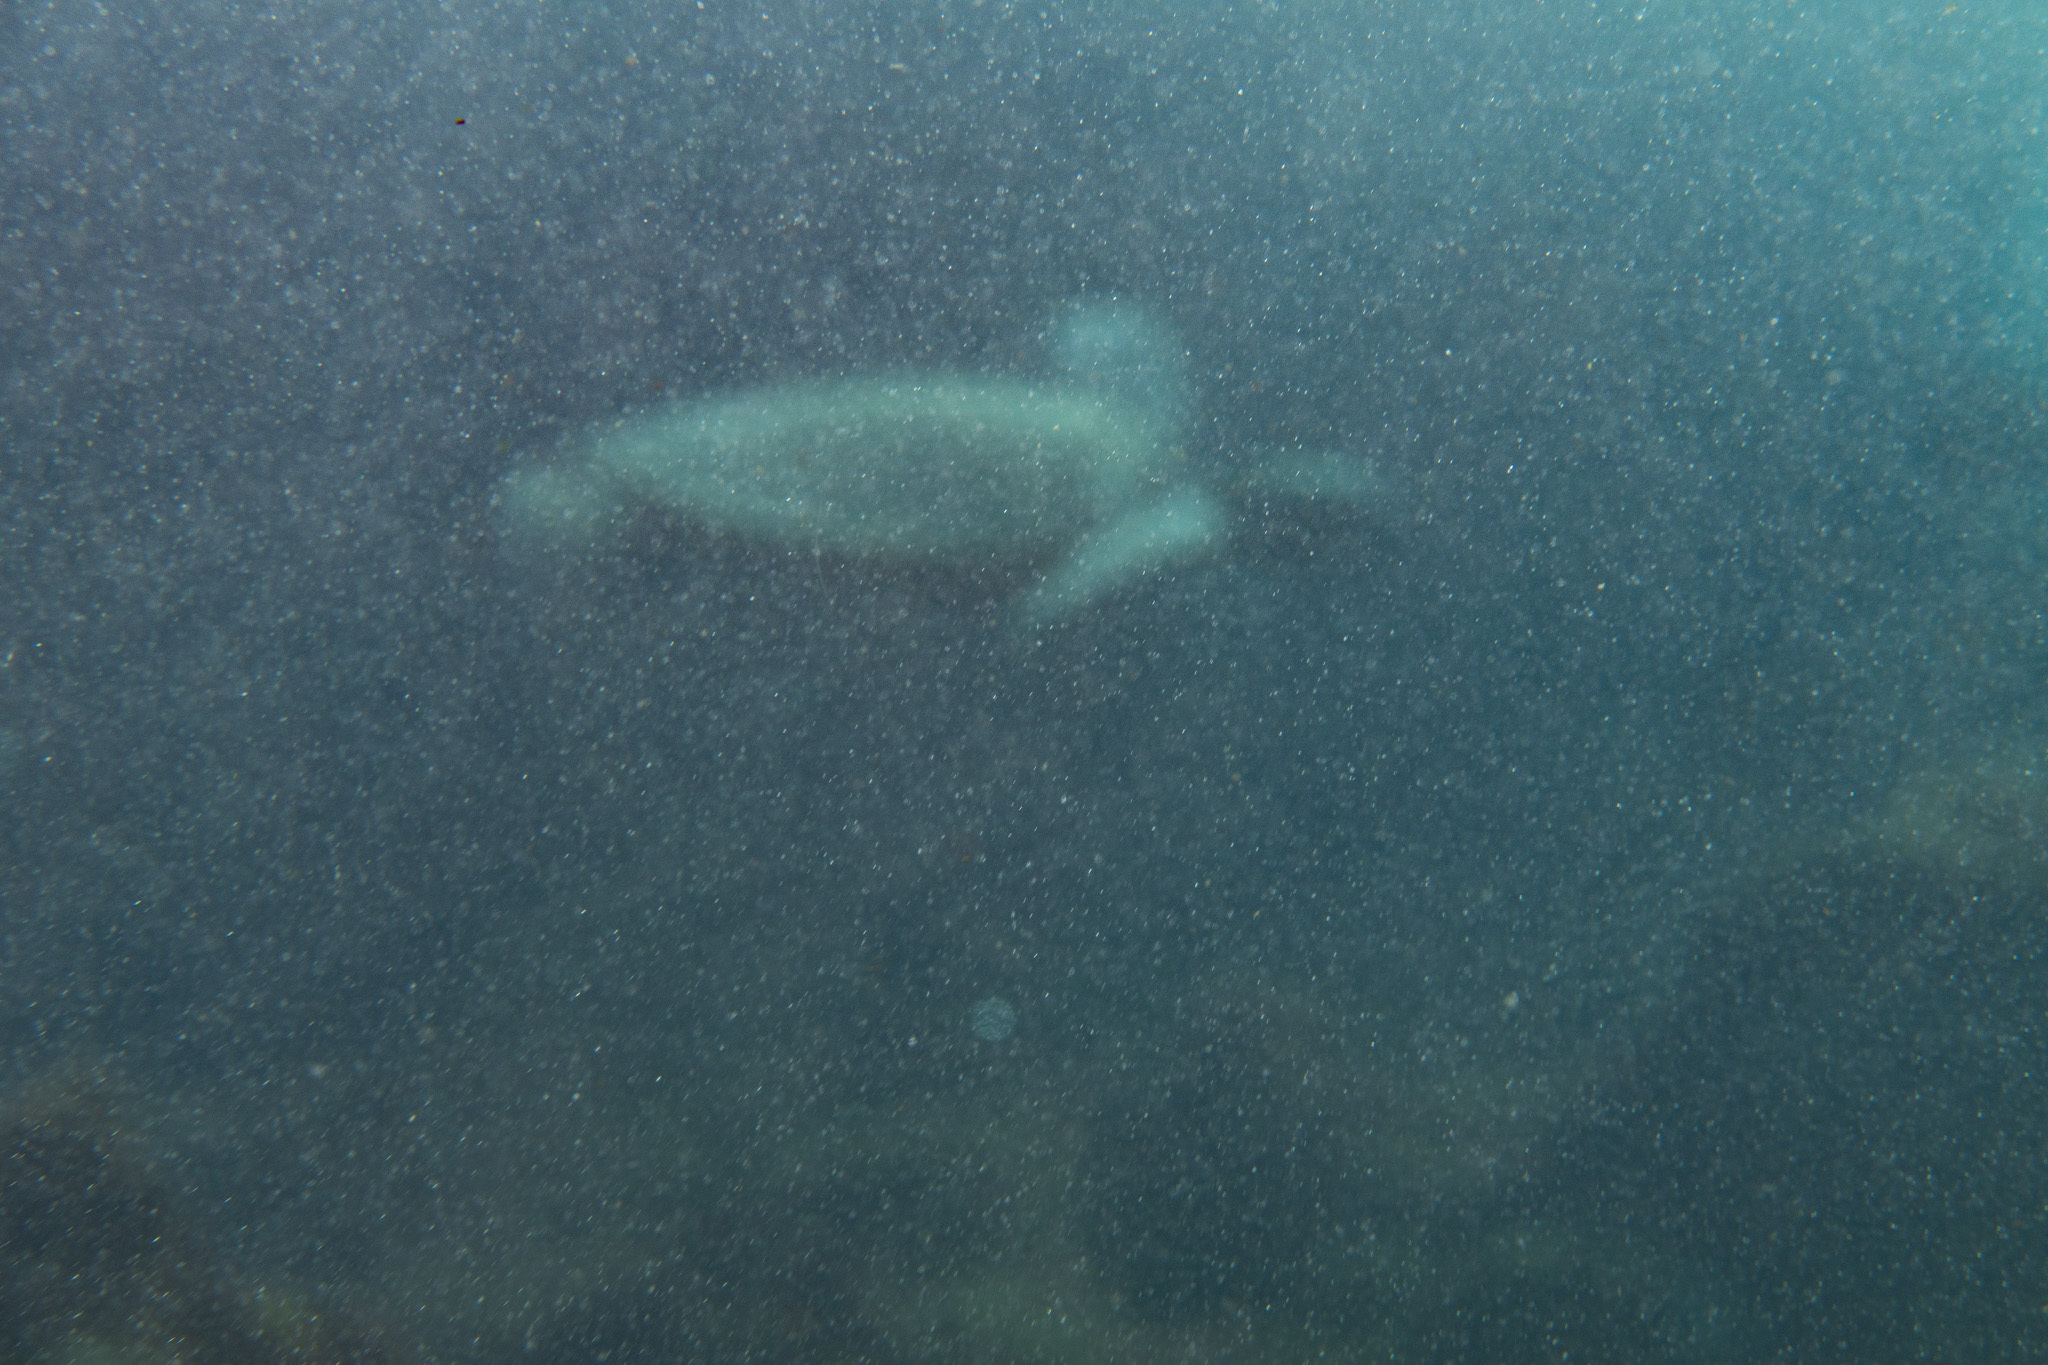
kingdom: Animalia
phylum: Chordata
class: Testudines
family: Cheloniidae
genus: Chelonia
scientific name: Chelonia mydas
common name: Green turtle
